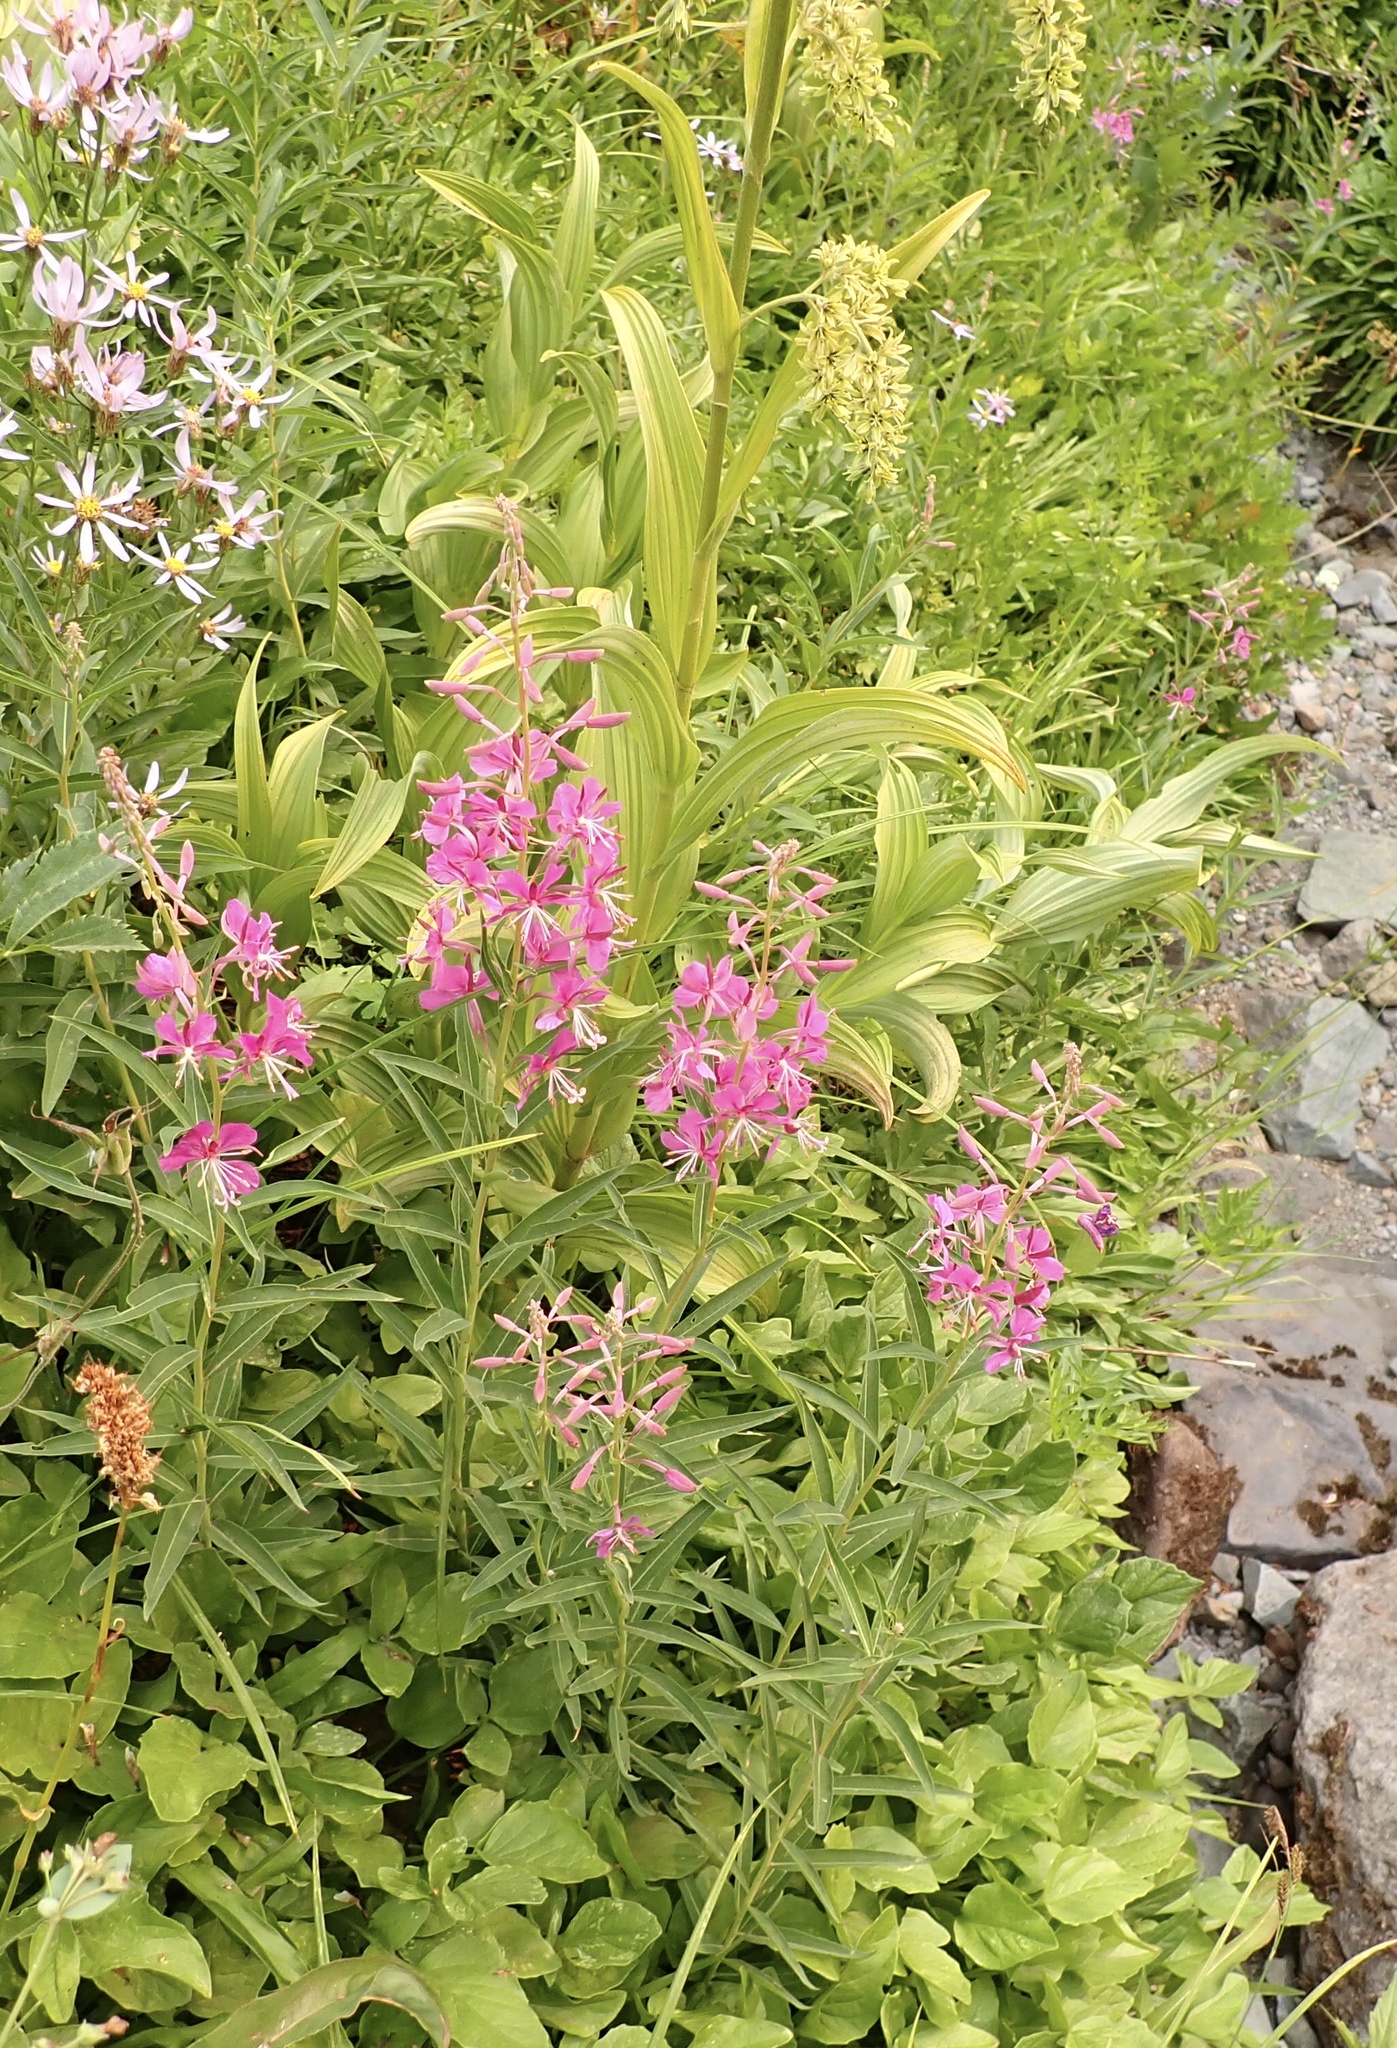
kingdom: Plantae
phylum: Tracheophyta
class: Magnoliopsida
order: Myrtales
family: Onagraceae
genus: Chamaenerion
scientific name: Chamaenerion angustifolium
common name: Fireweed
